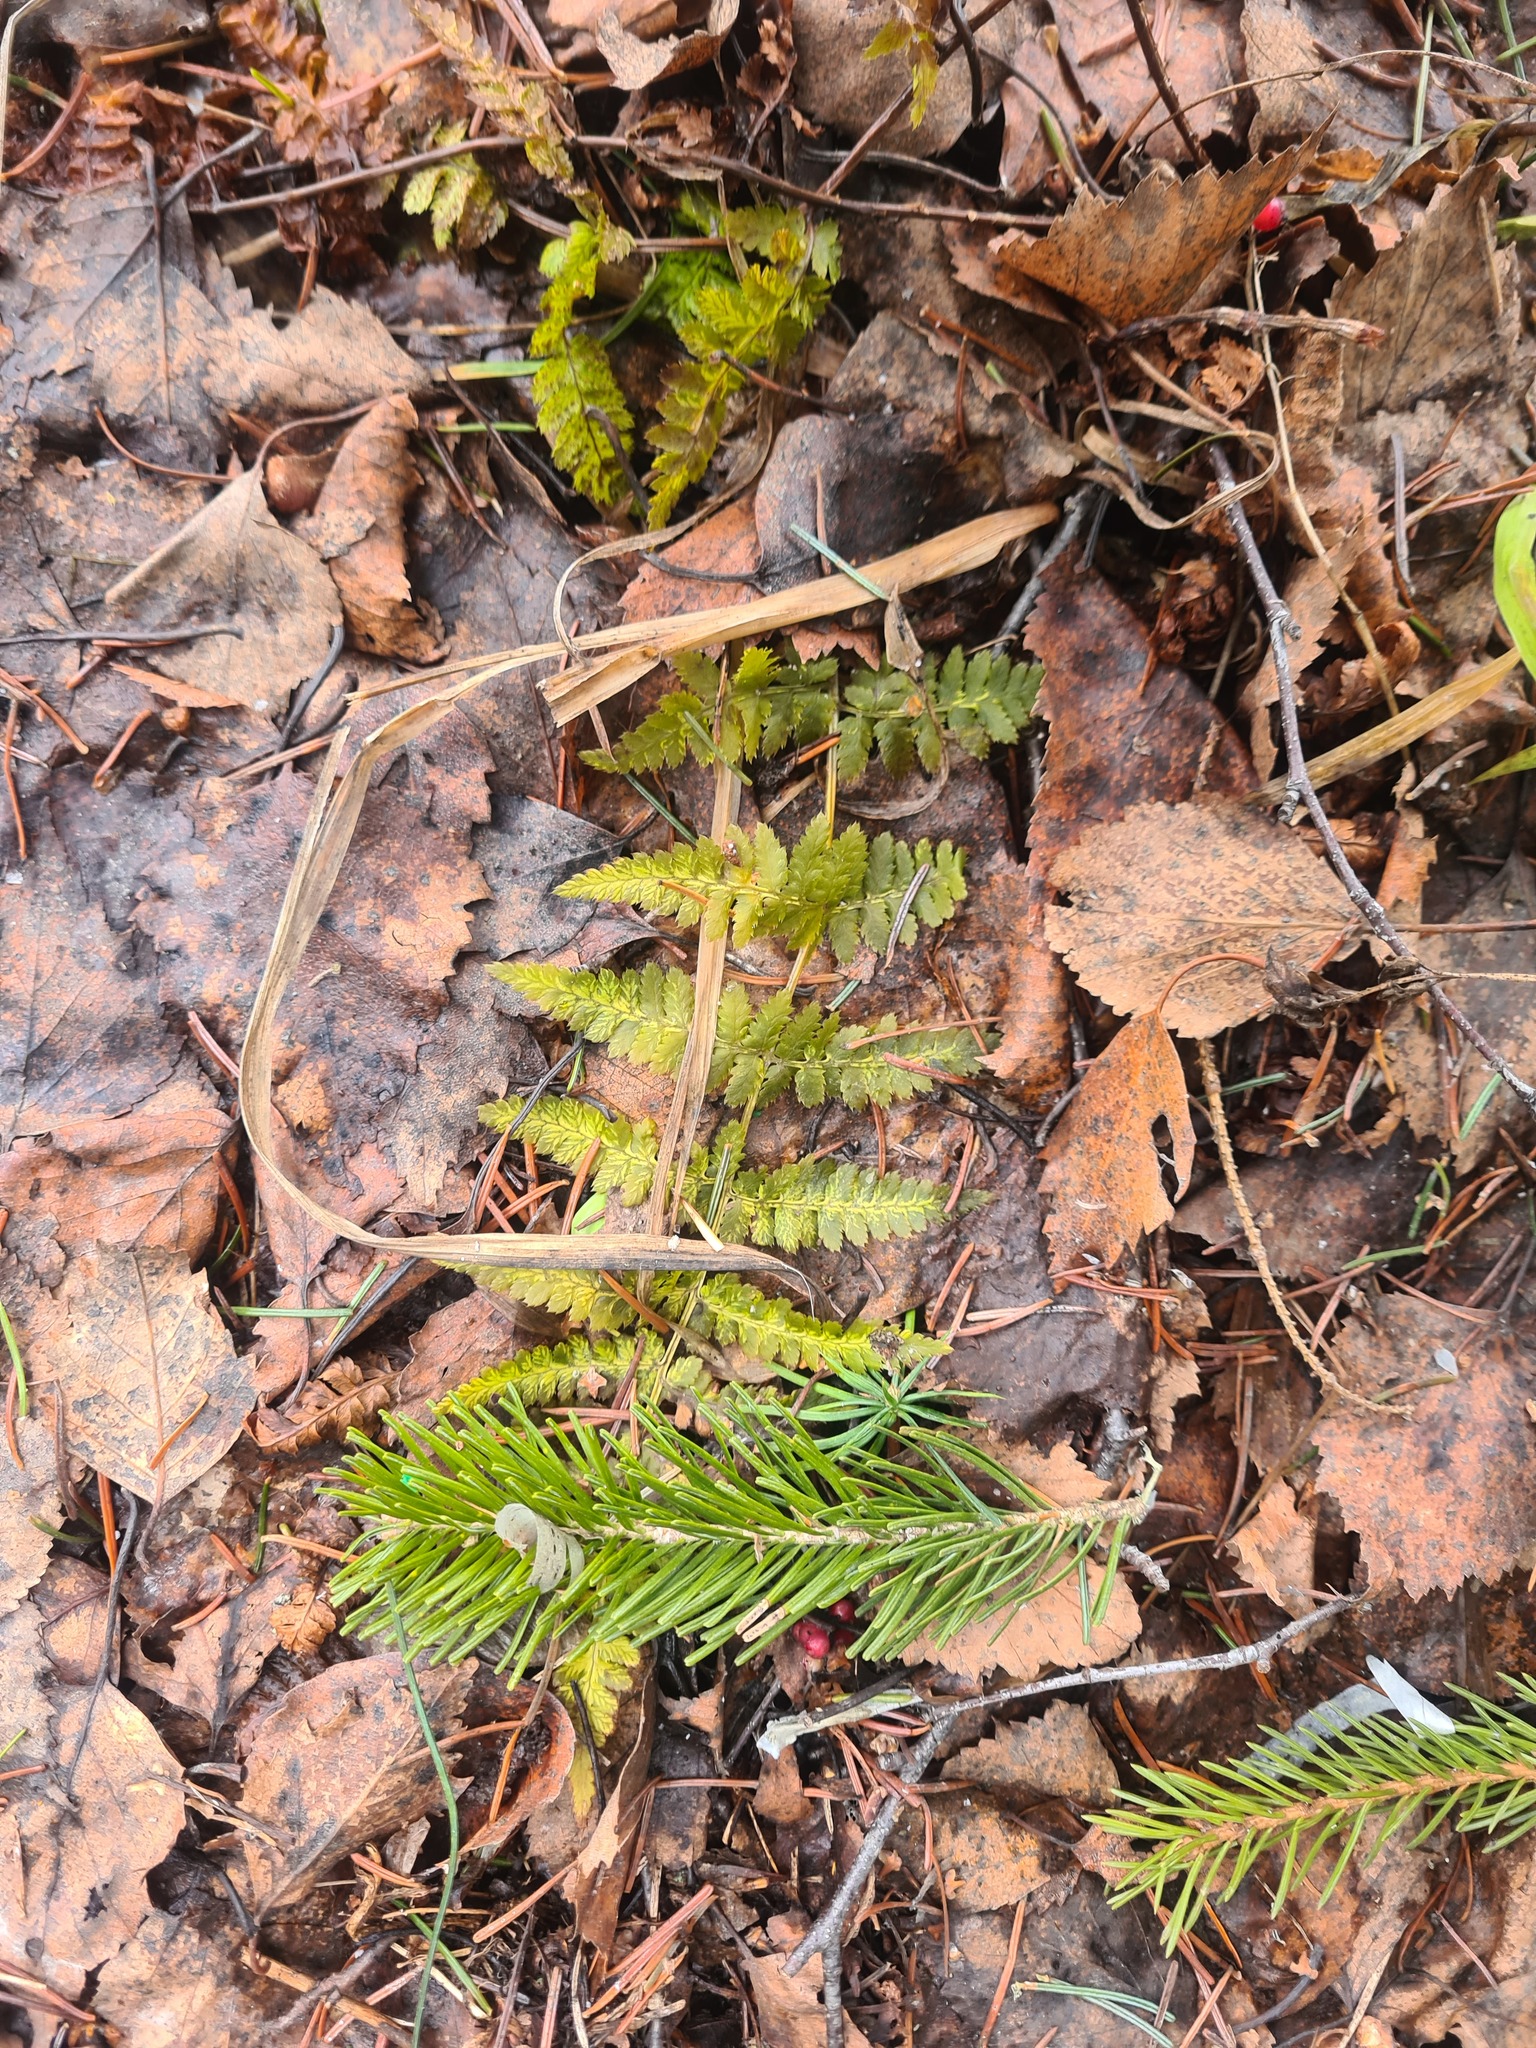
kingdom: Plantae
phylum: Tracheophyta
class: Polypodiopsida
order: Polypodiales
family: Dryopteridaceae
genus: Dryopteris
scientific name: Dryopteris carthusiana
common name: Narrow buckler-fern
